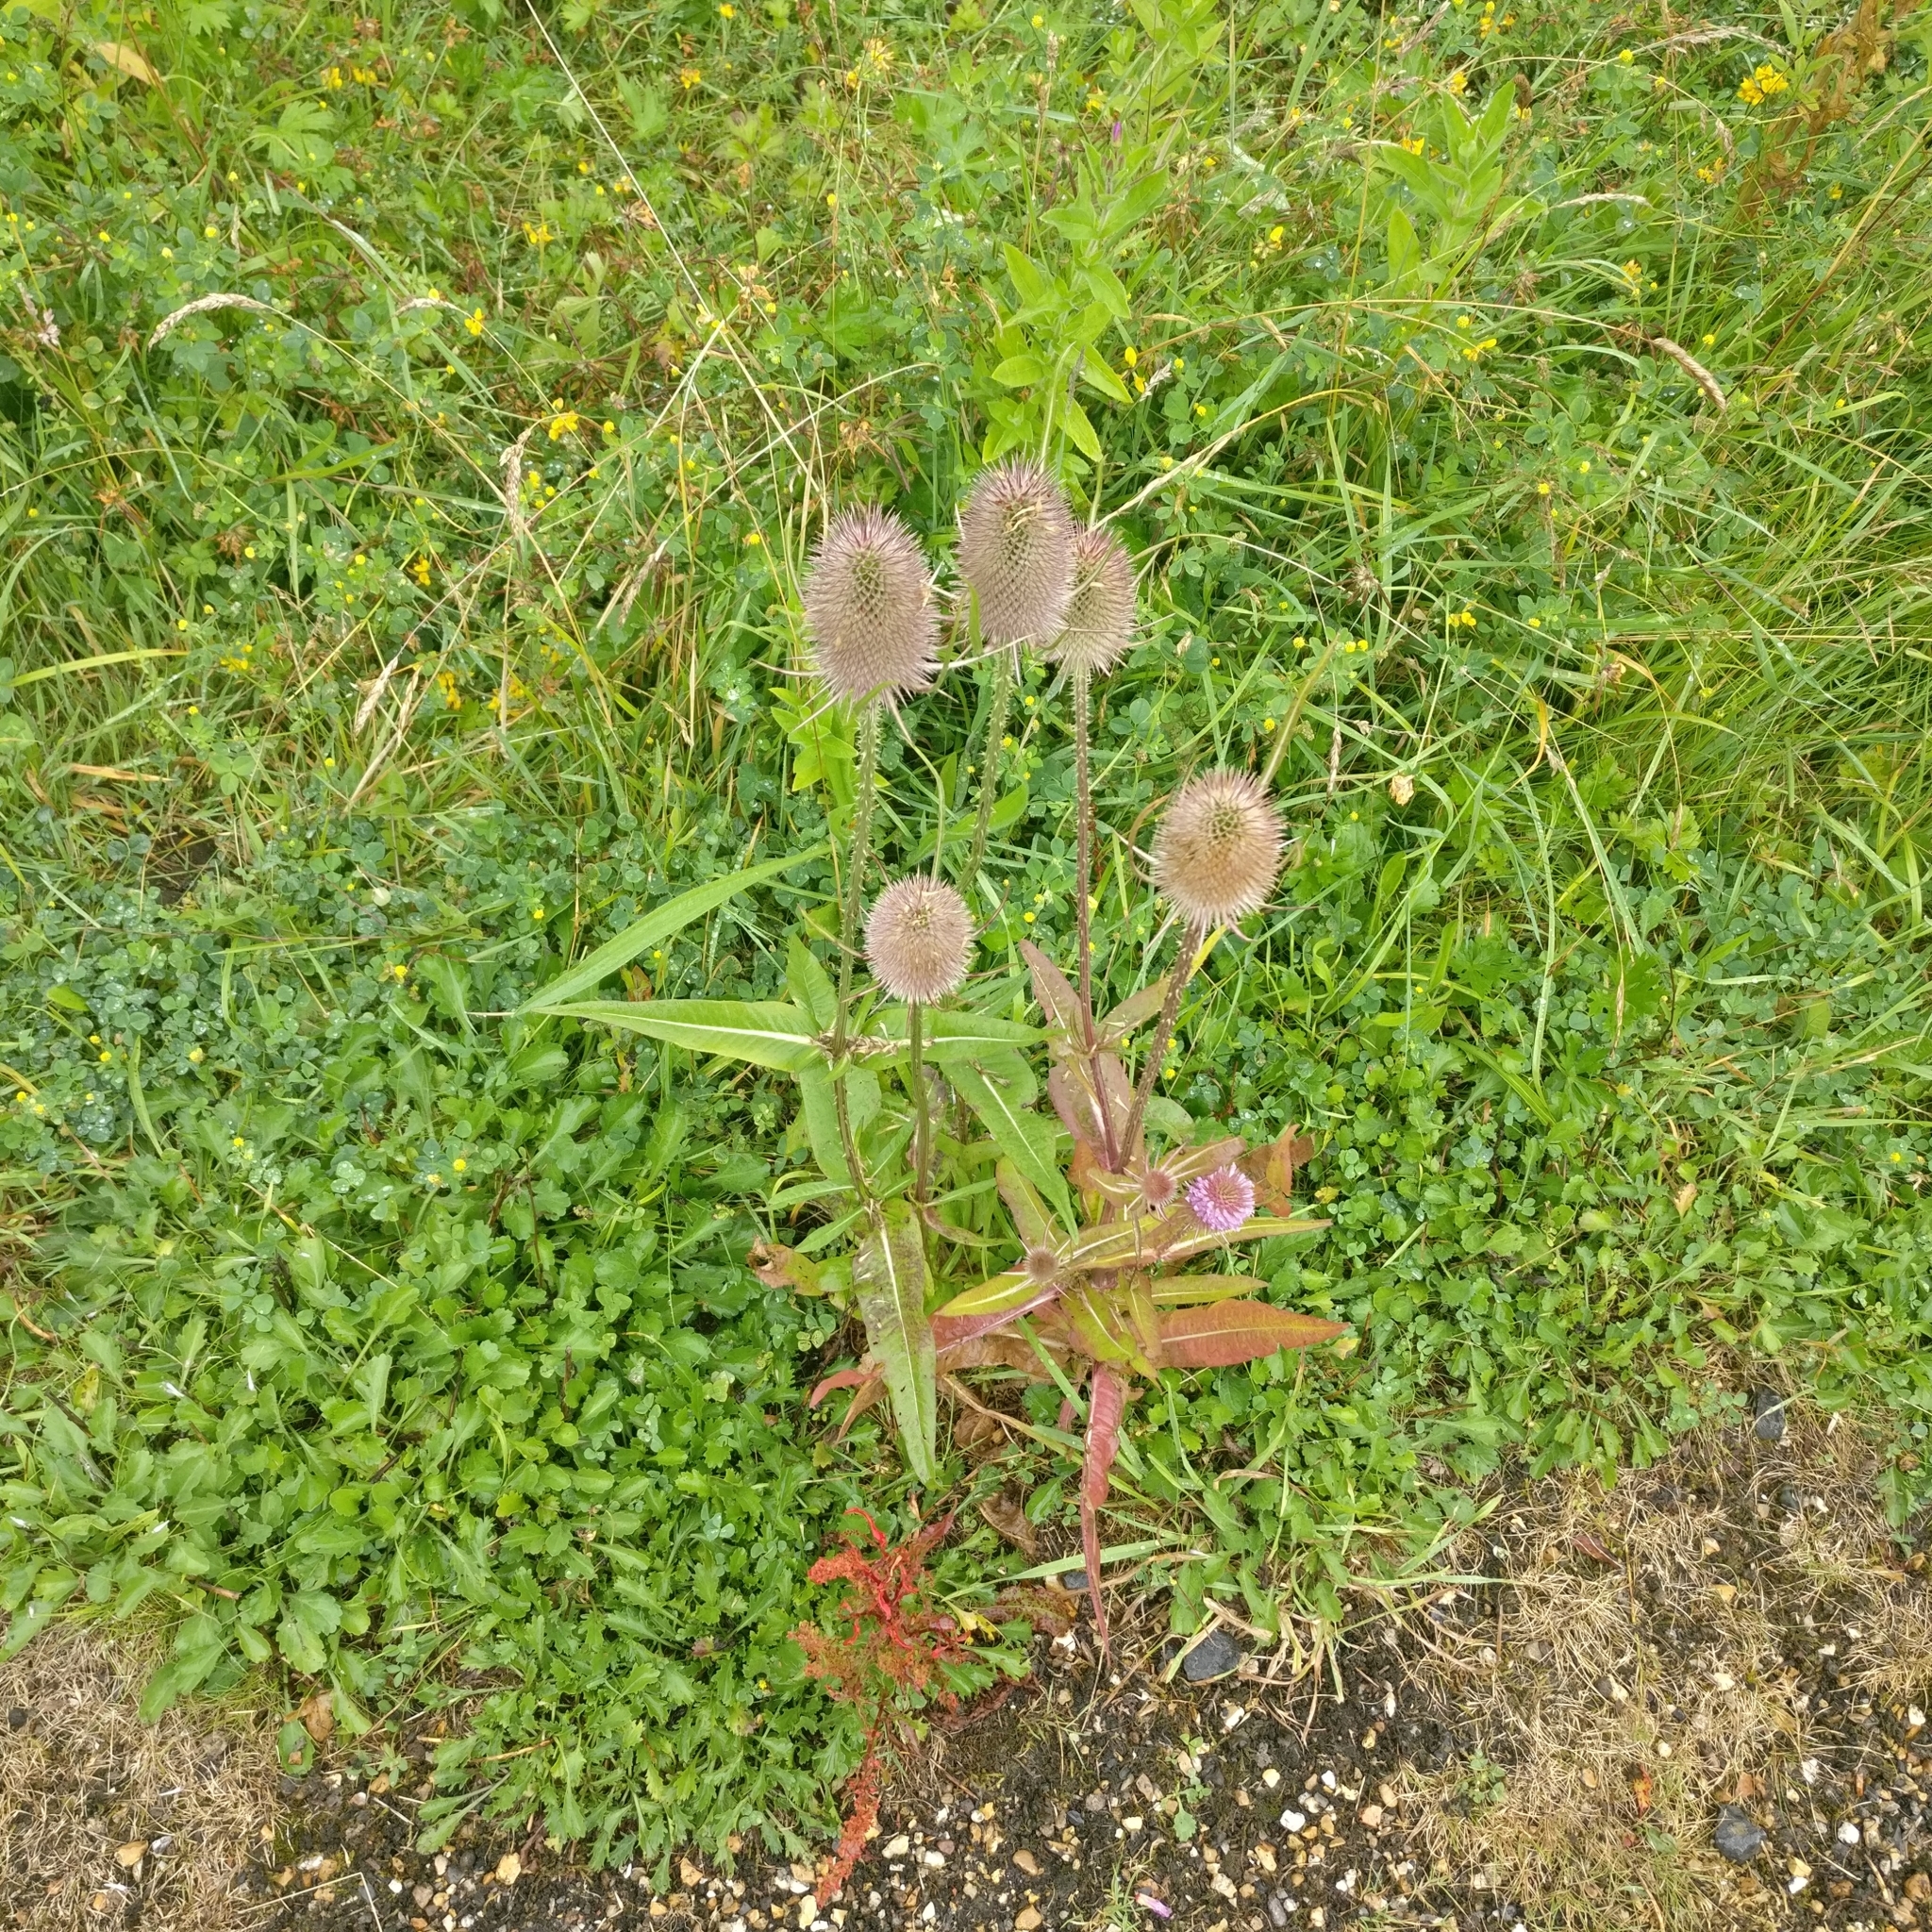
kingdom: Plantae
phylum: Tracheophyta
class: Magnoliopsida
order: Dipsacales
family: Caprifoliaceae
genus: Dipsacus
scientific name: Dipsacus fullonum
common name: Teasel
